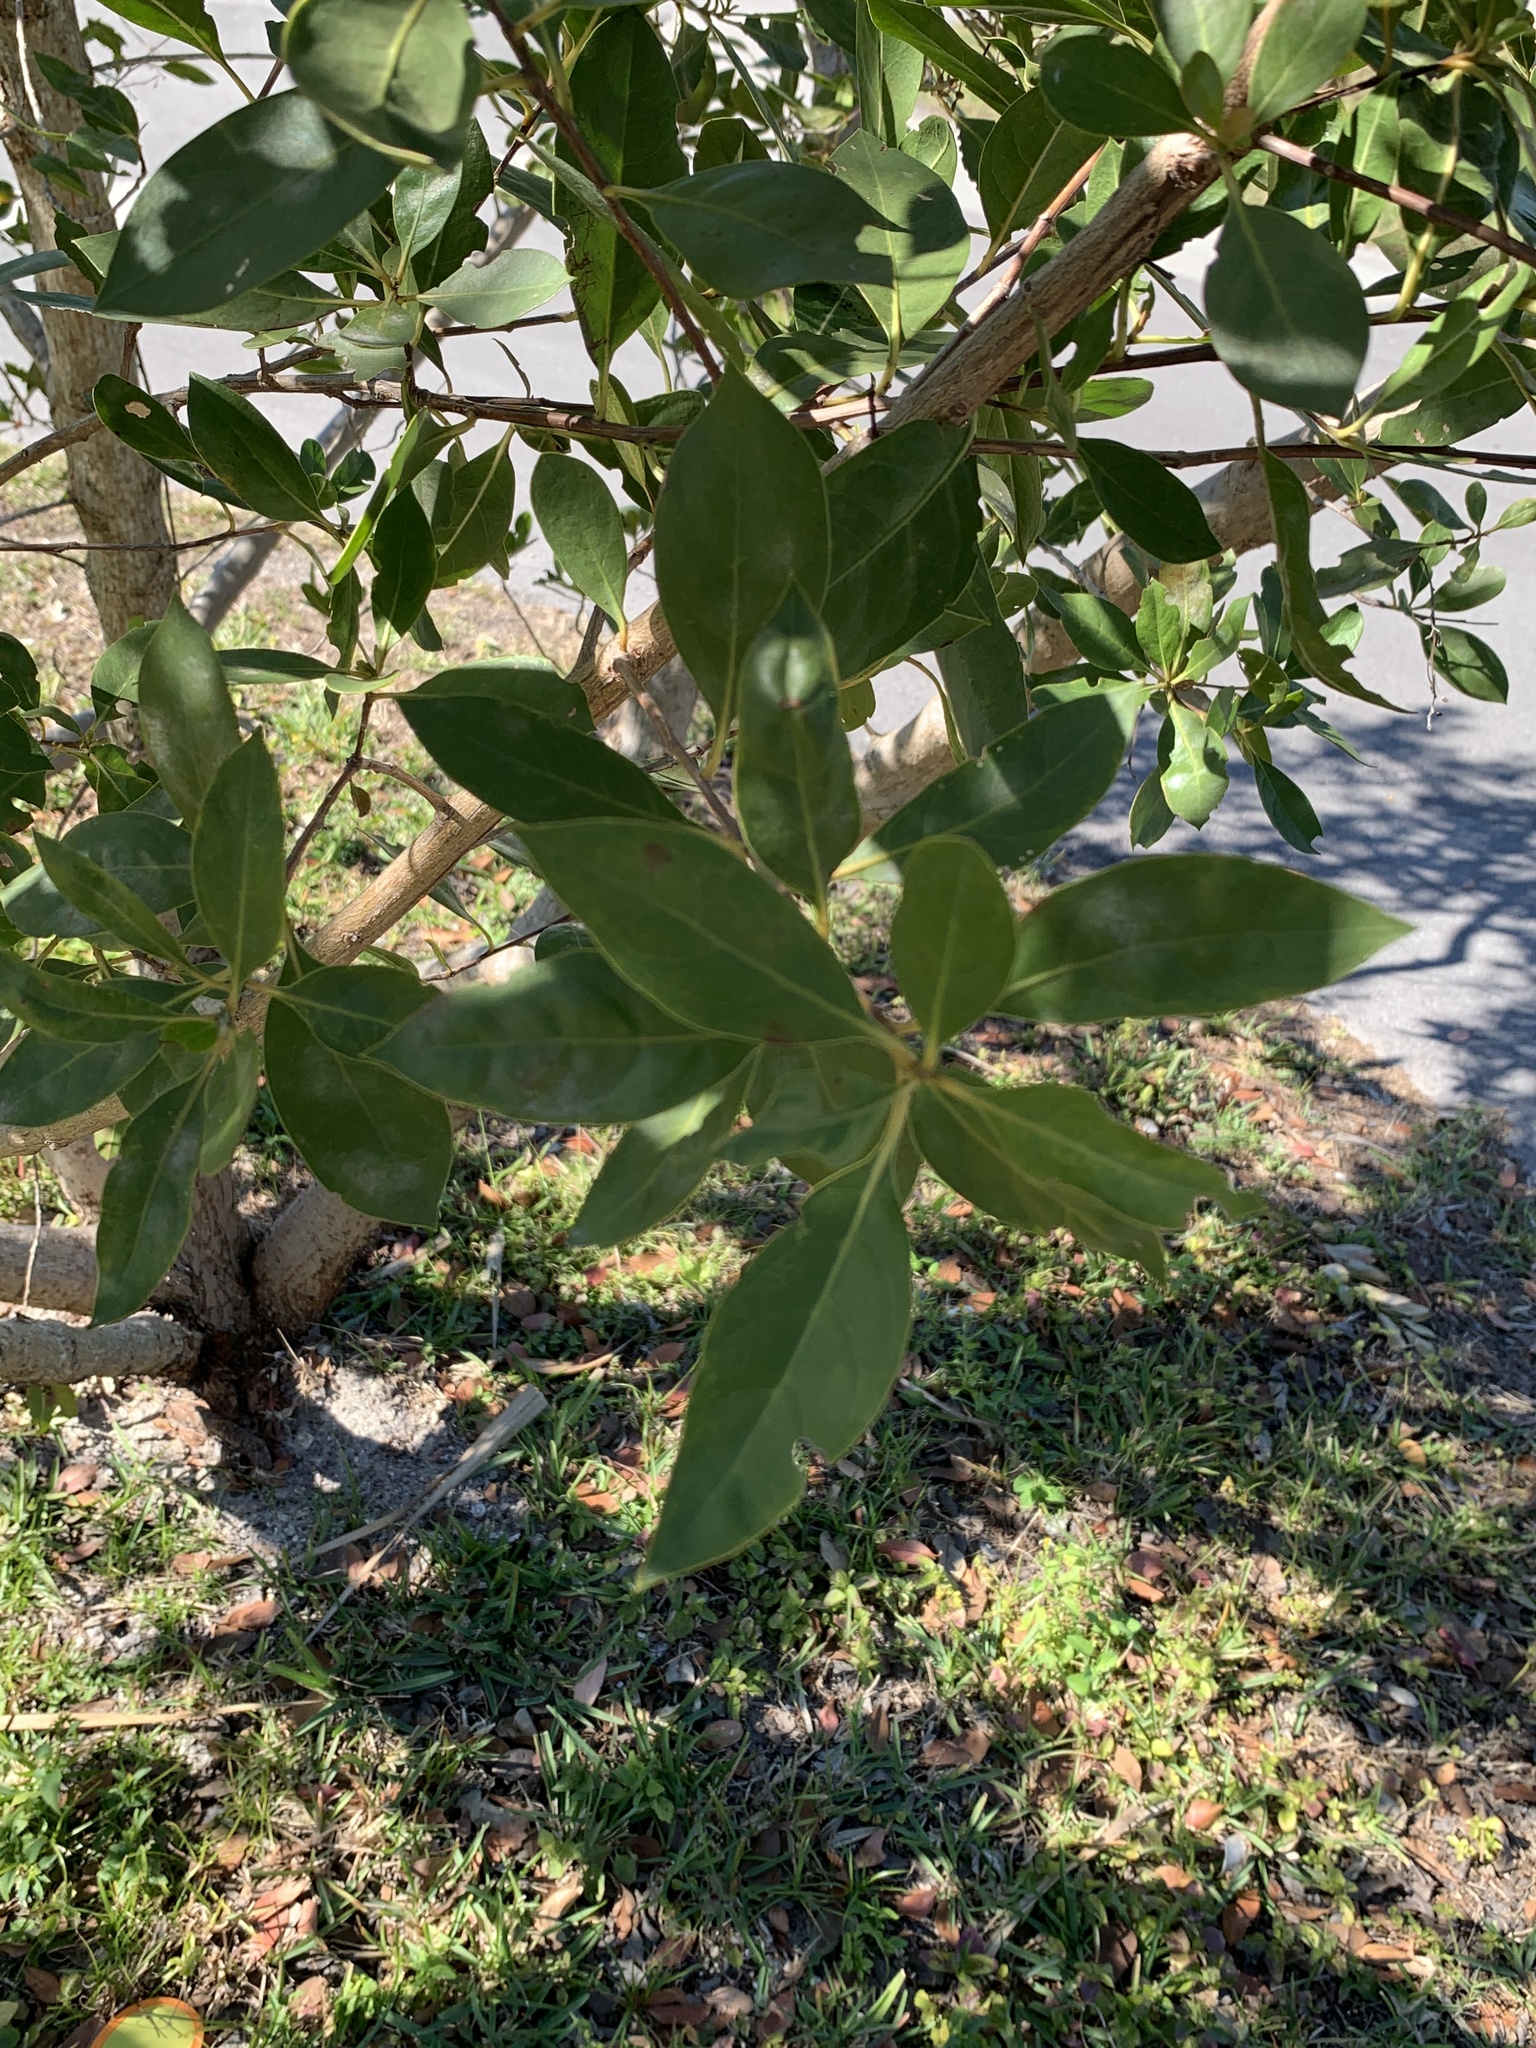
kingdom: Plantae
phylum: Tracheophyta
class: Magnoliopsida
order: Myrtales
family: Combretaceae
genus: Conocarpus
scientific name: Conocarpus erectus
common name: Button mangrove
